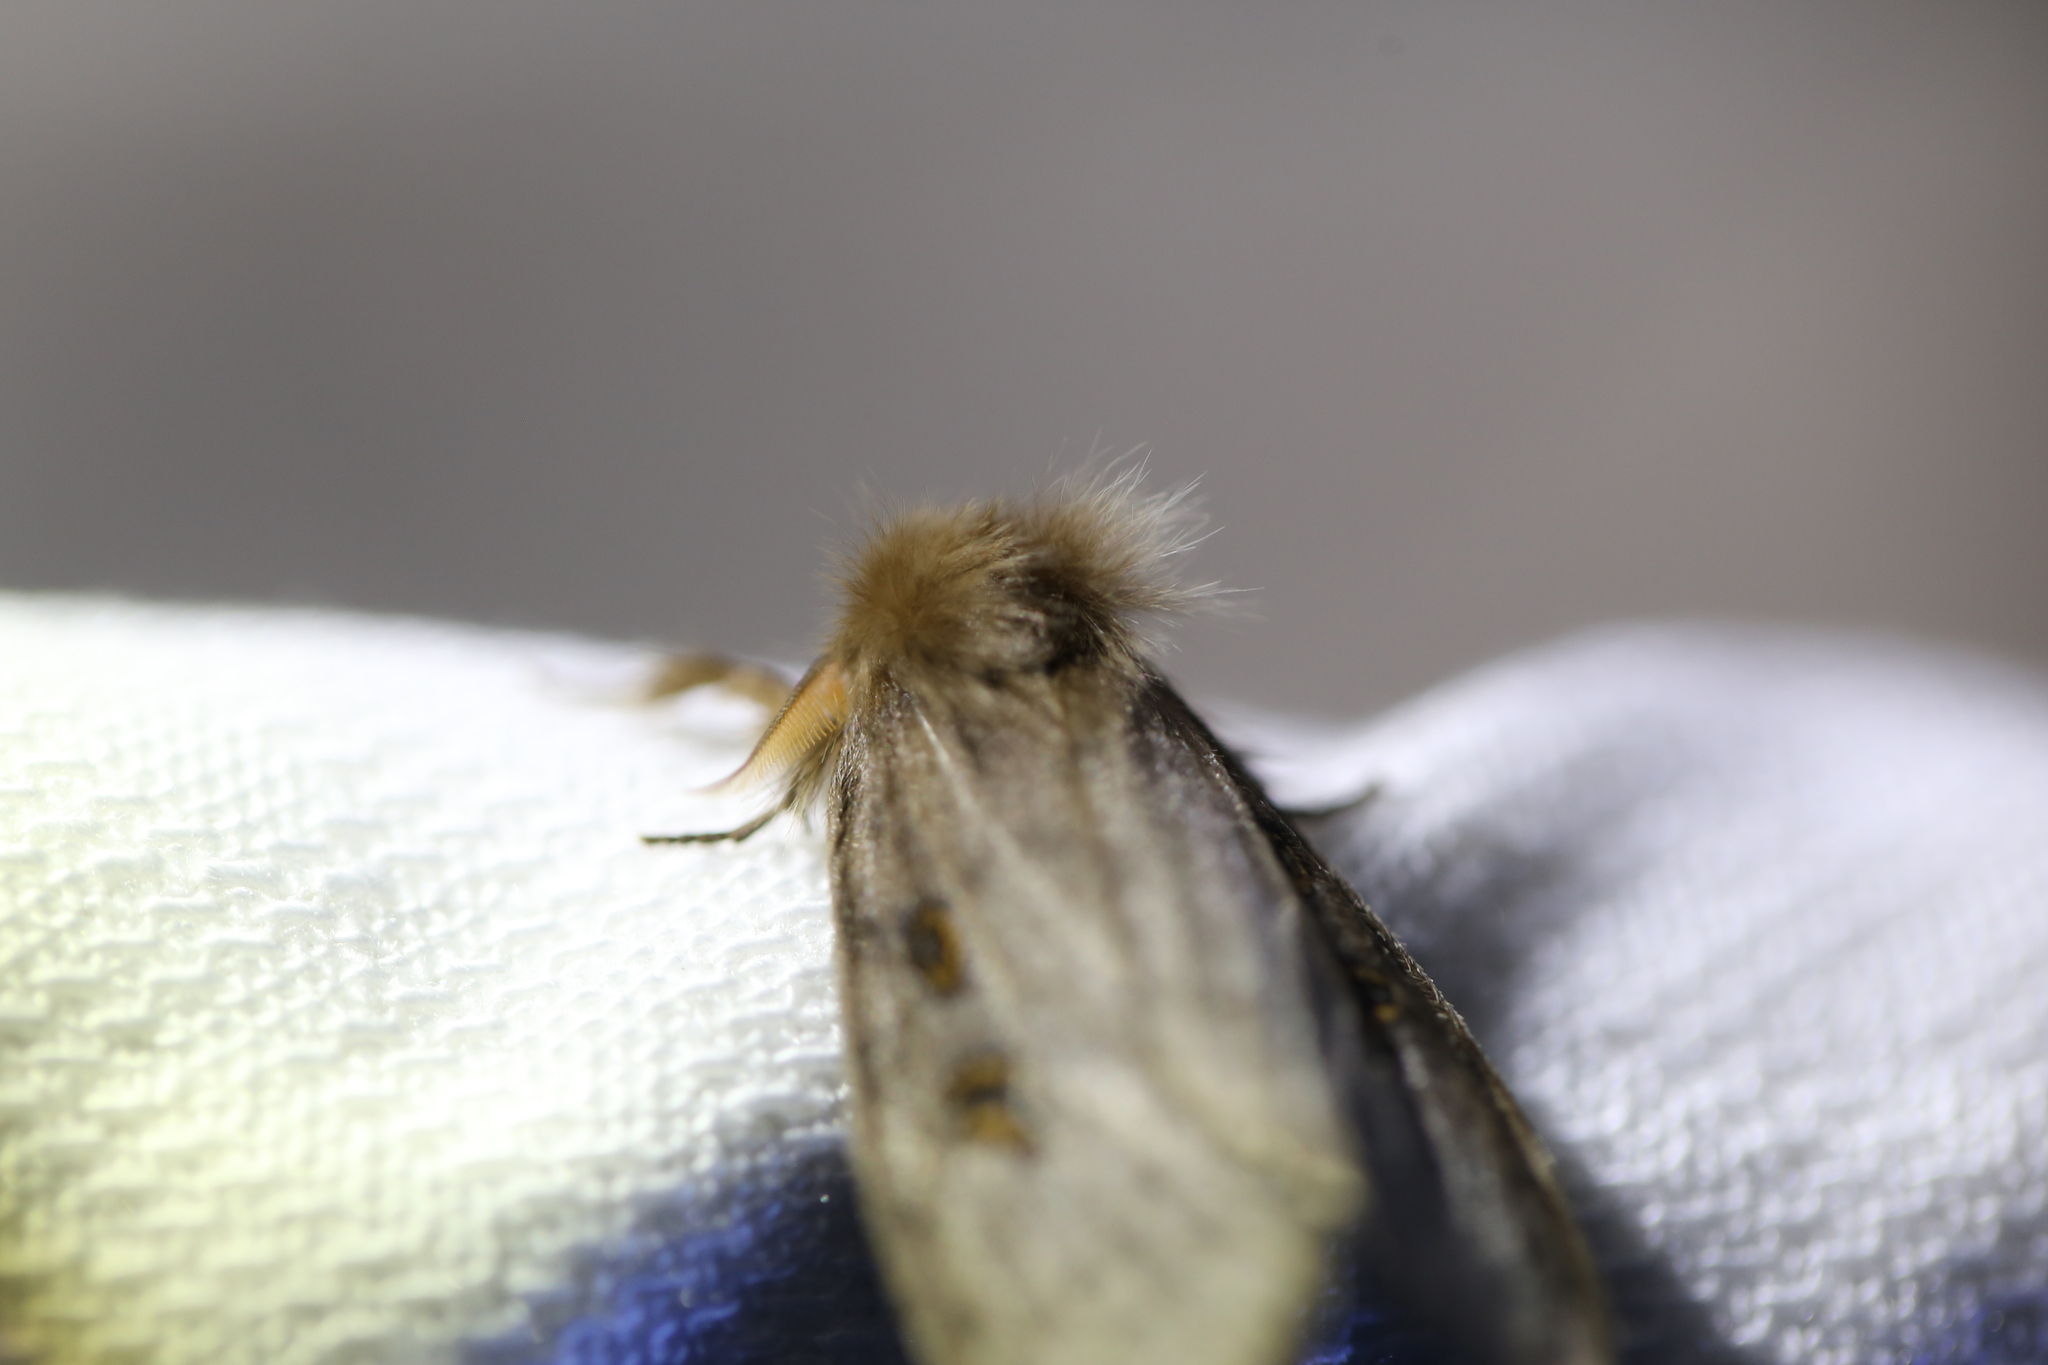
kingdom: Animalia
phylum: Arthropoda
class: Insecta
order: Lepidoptera
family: Erebidae
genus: Leptocneria
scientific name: Leptocneria reducta
